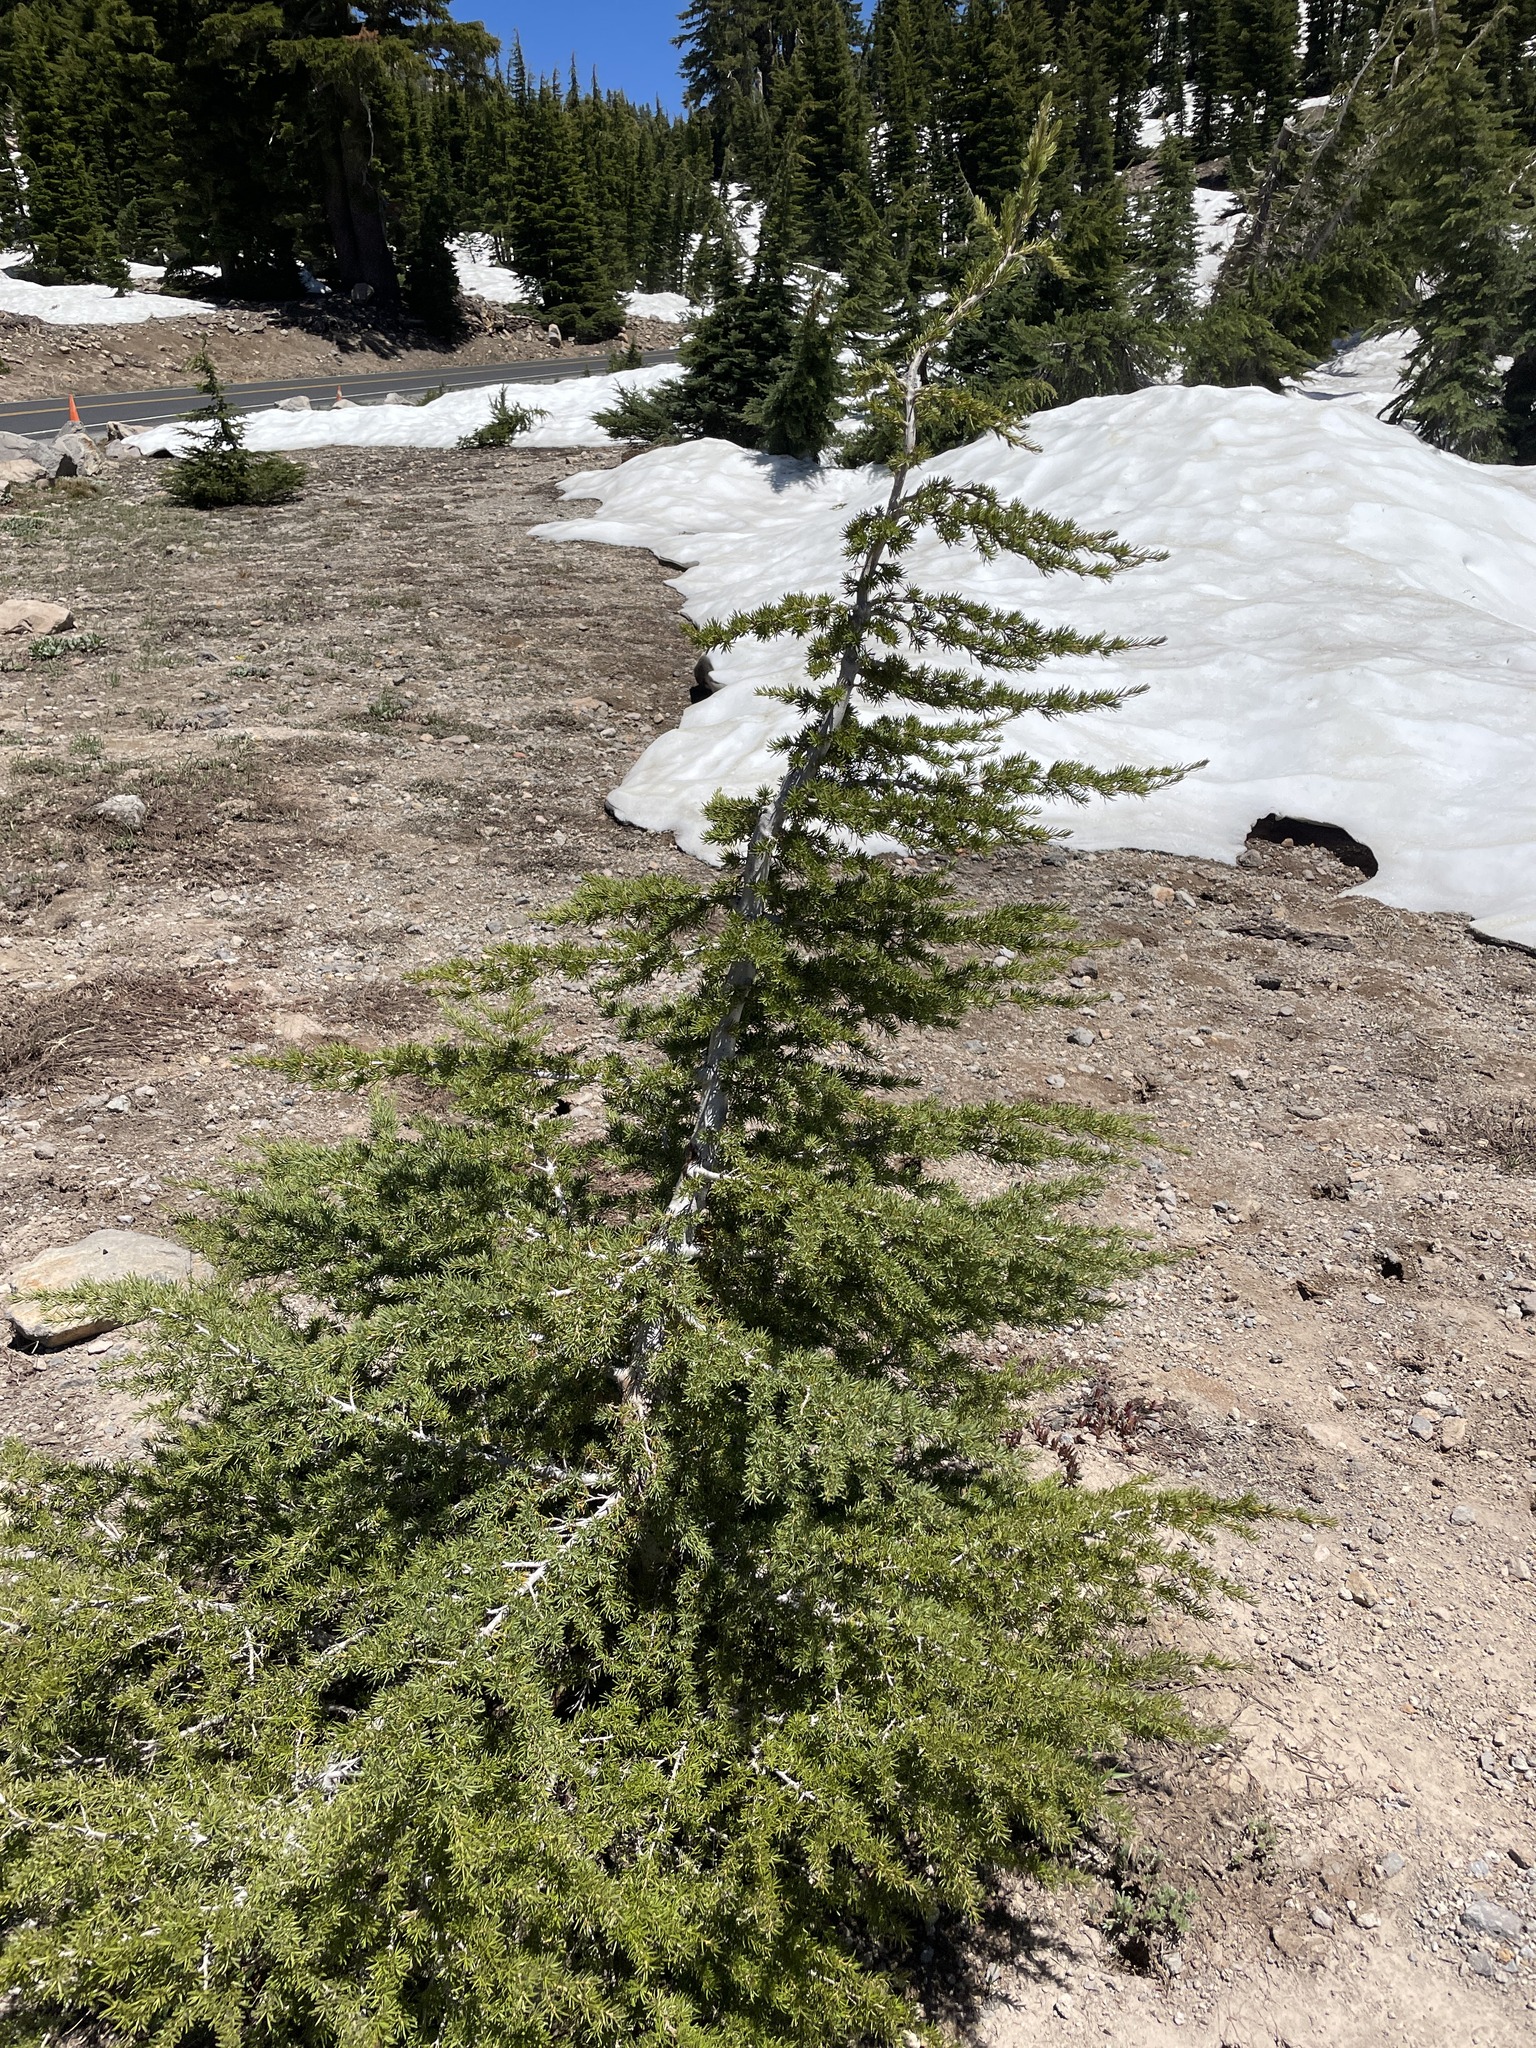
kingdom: Plantae
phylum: Tracheophyta
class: Pinopsida
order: Pinales
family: Pinaceae
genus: Tsuga
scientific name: Tsuga mertensiana
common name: Mountain hemlock
